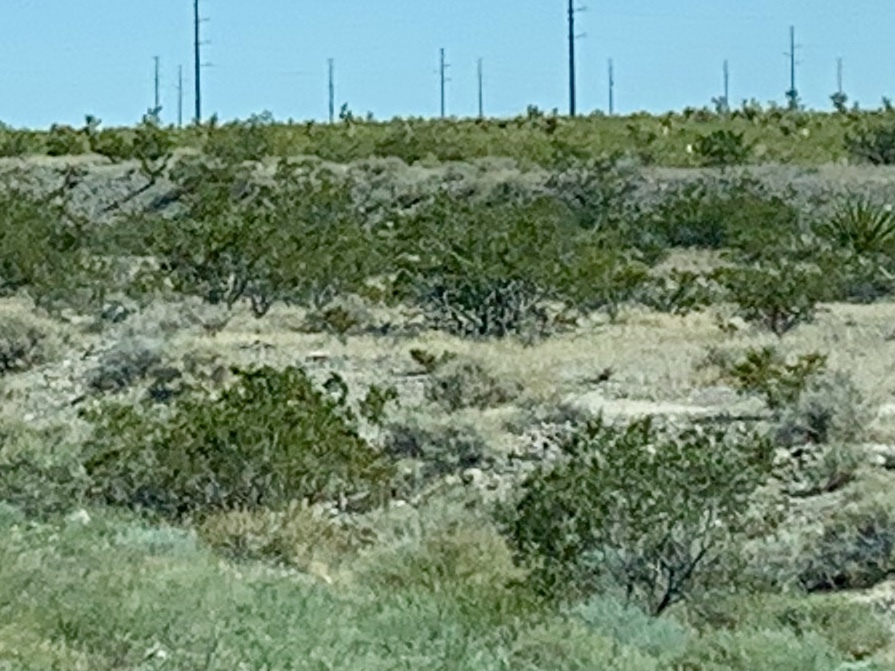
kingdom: Plantae
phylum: Tracheophyta
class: Magnoliopsida
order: Zygophyllales
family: Zygophyllaceae
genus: Larrea
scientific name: Larrea tridentata
